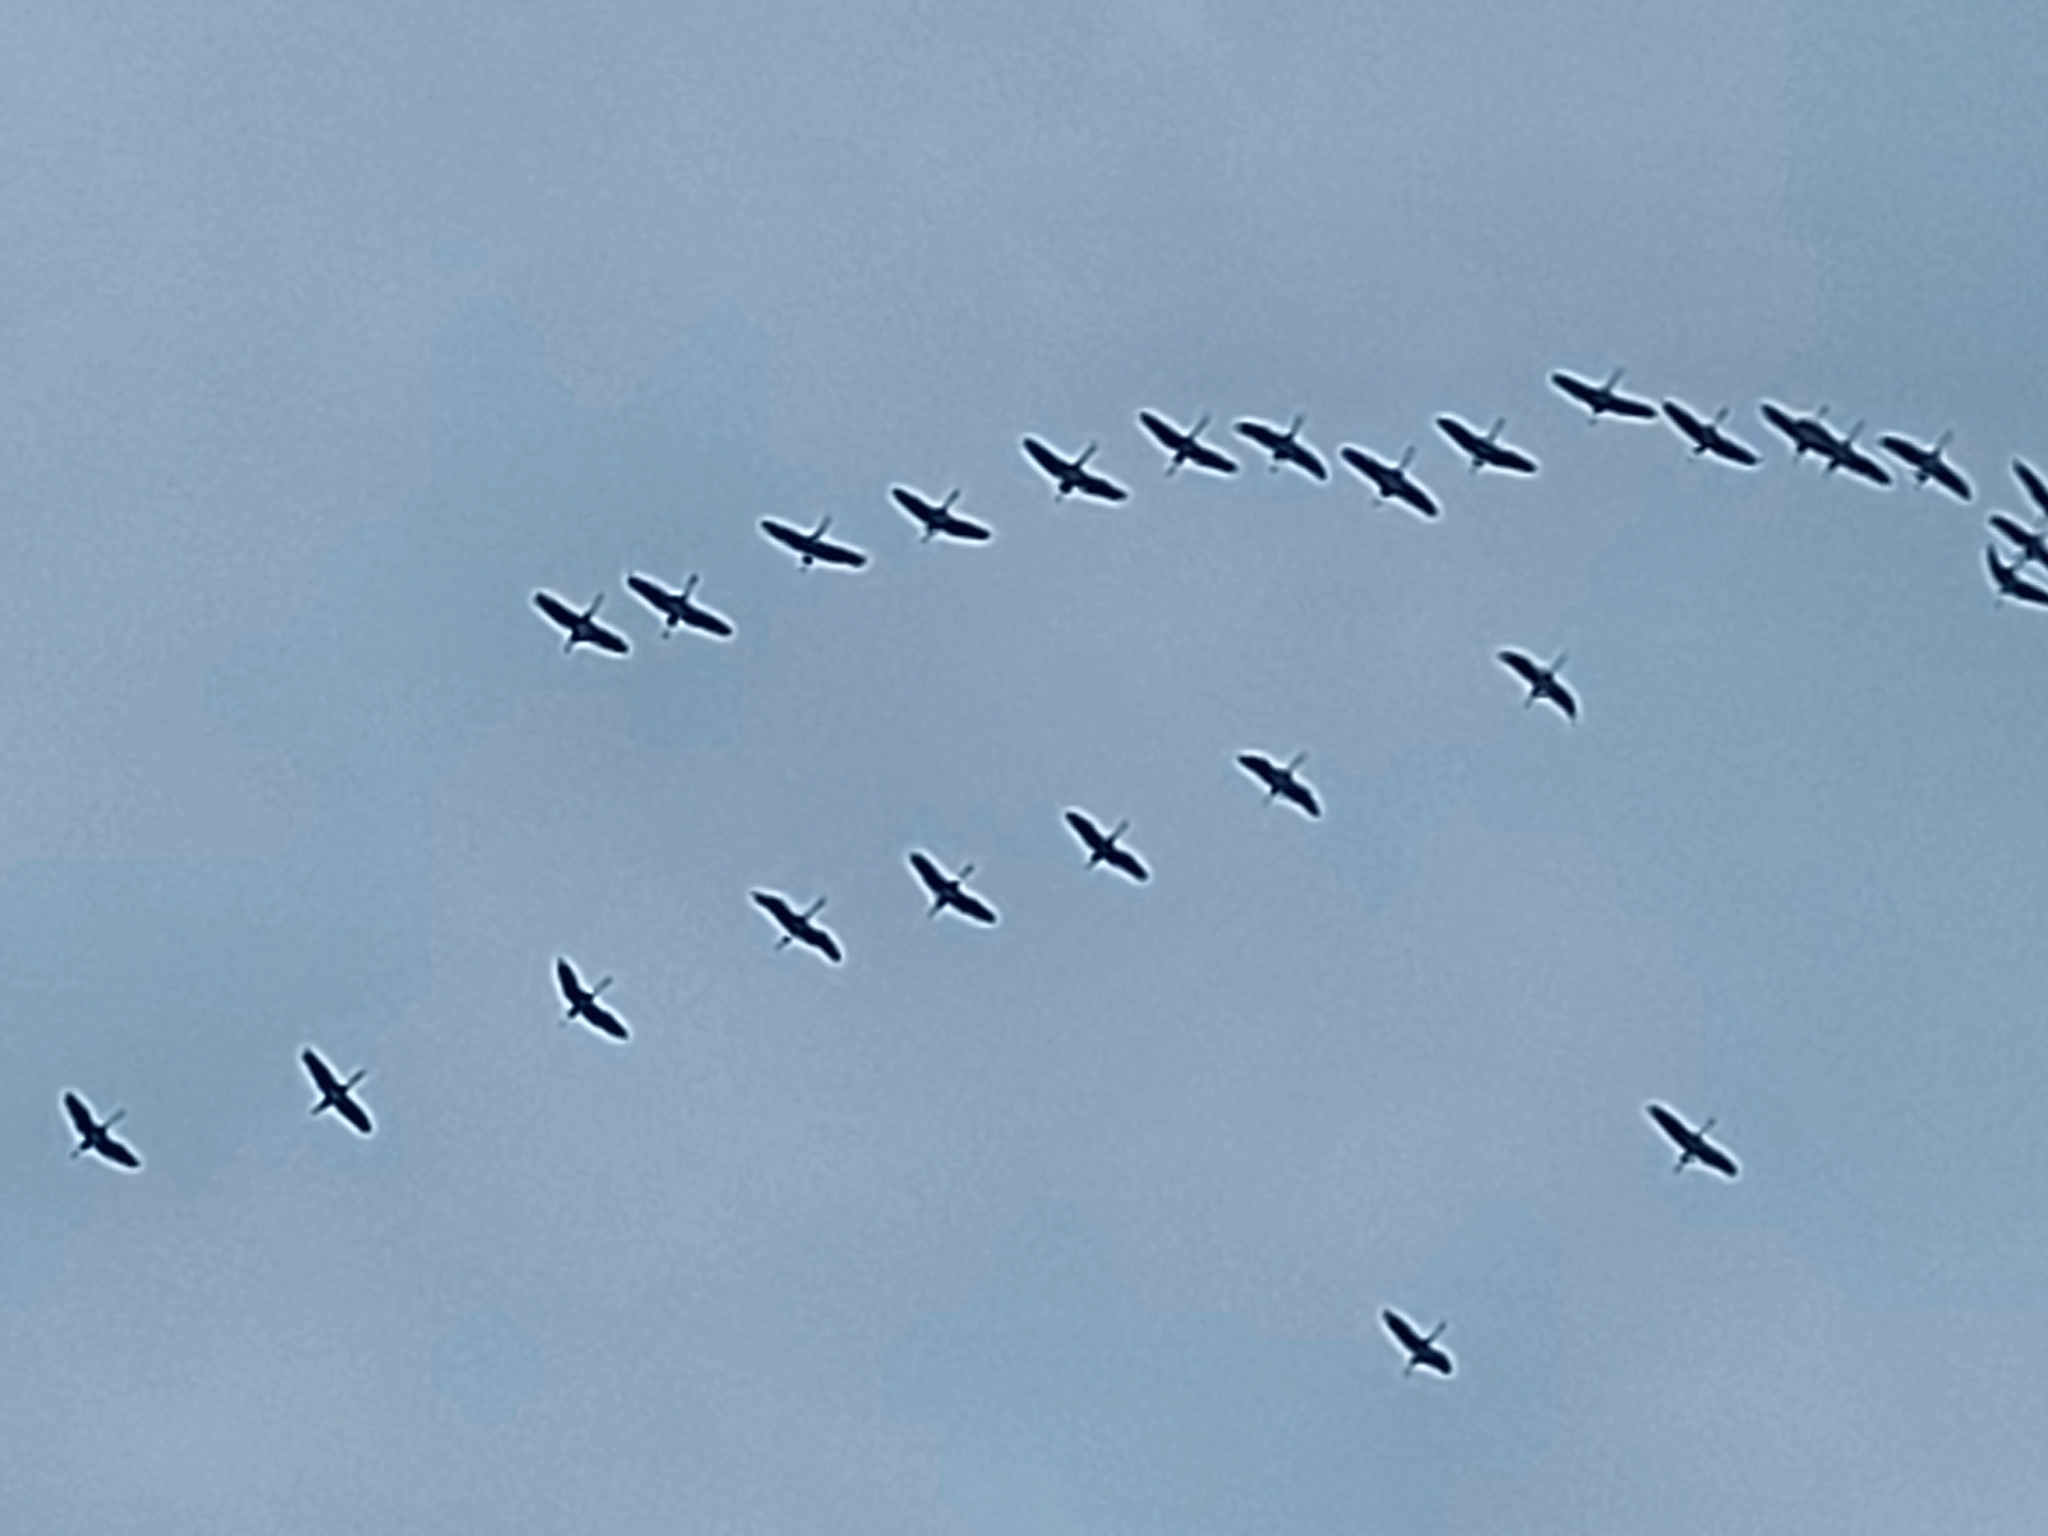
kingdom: Animalia
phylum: Chordata
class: Aves
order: Gruiformes
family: Gruidae
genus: Grus
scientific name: Grus grus
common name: Common crane
